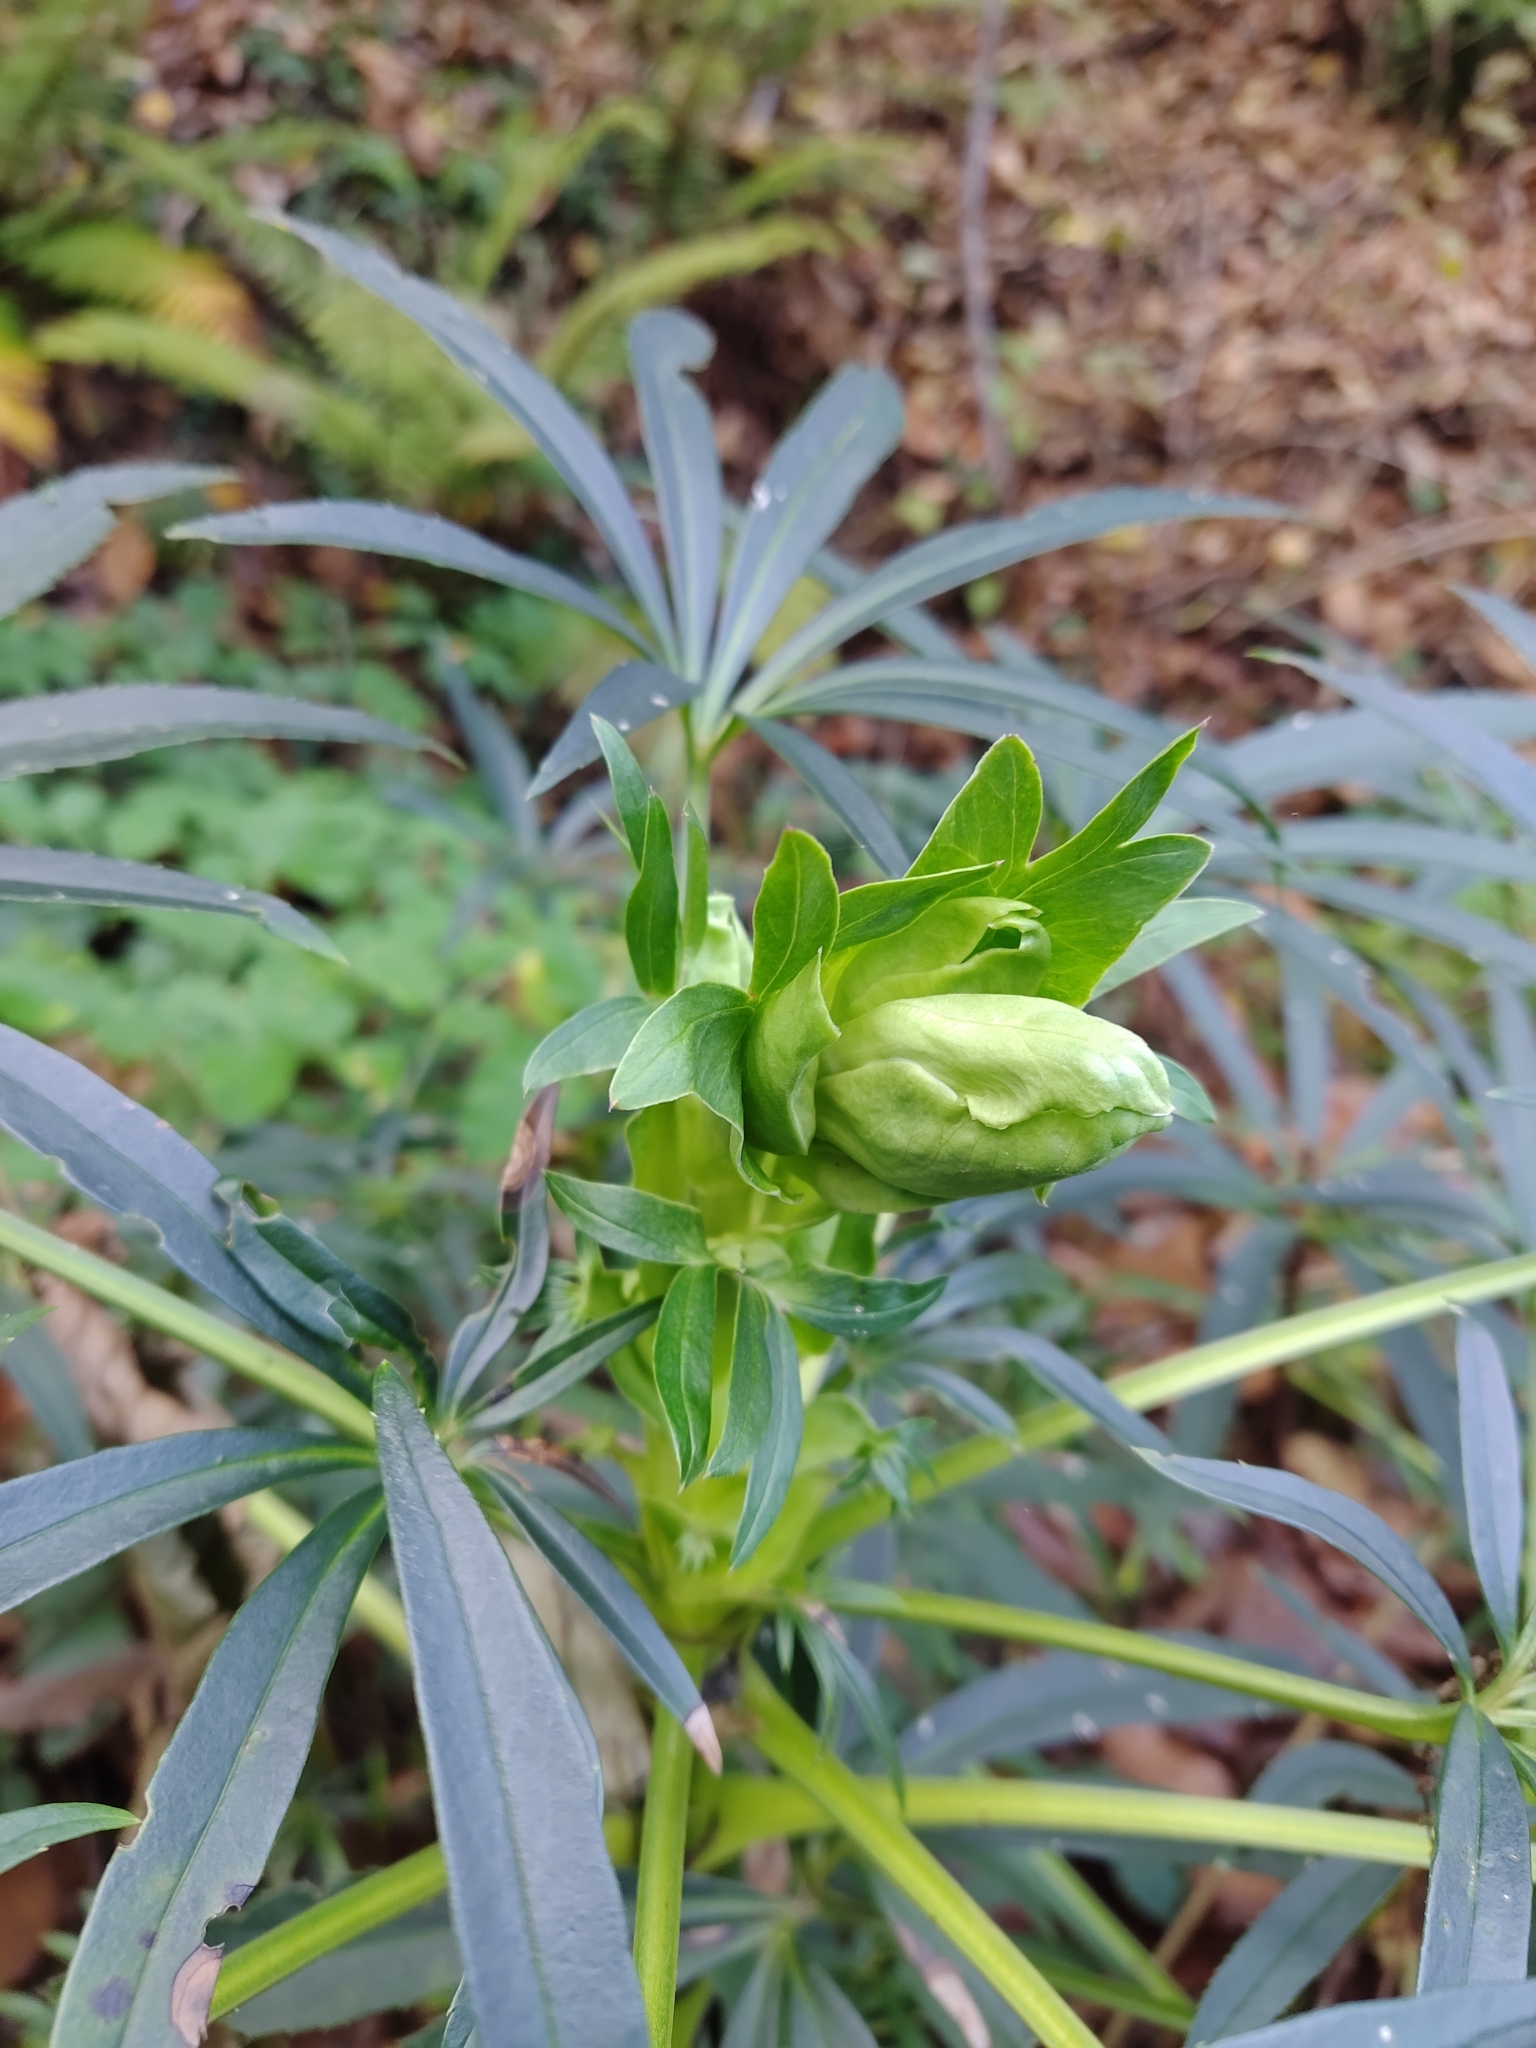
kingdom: Plantae
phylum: Tracheophyta
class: Magnoliopsida
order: Ranunculales
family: Ranunculaceae
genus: Helleborus
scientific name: Helleborus foetidus
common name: Stinking hellebore
